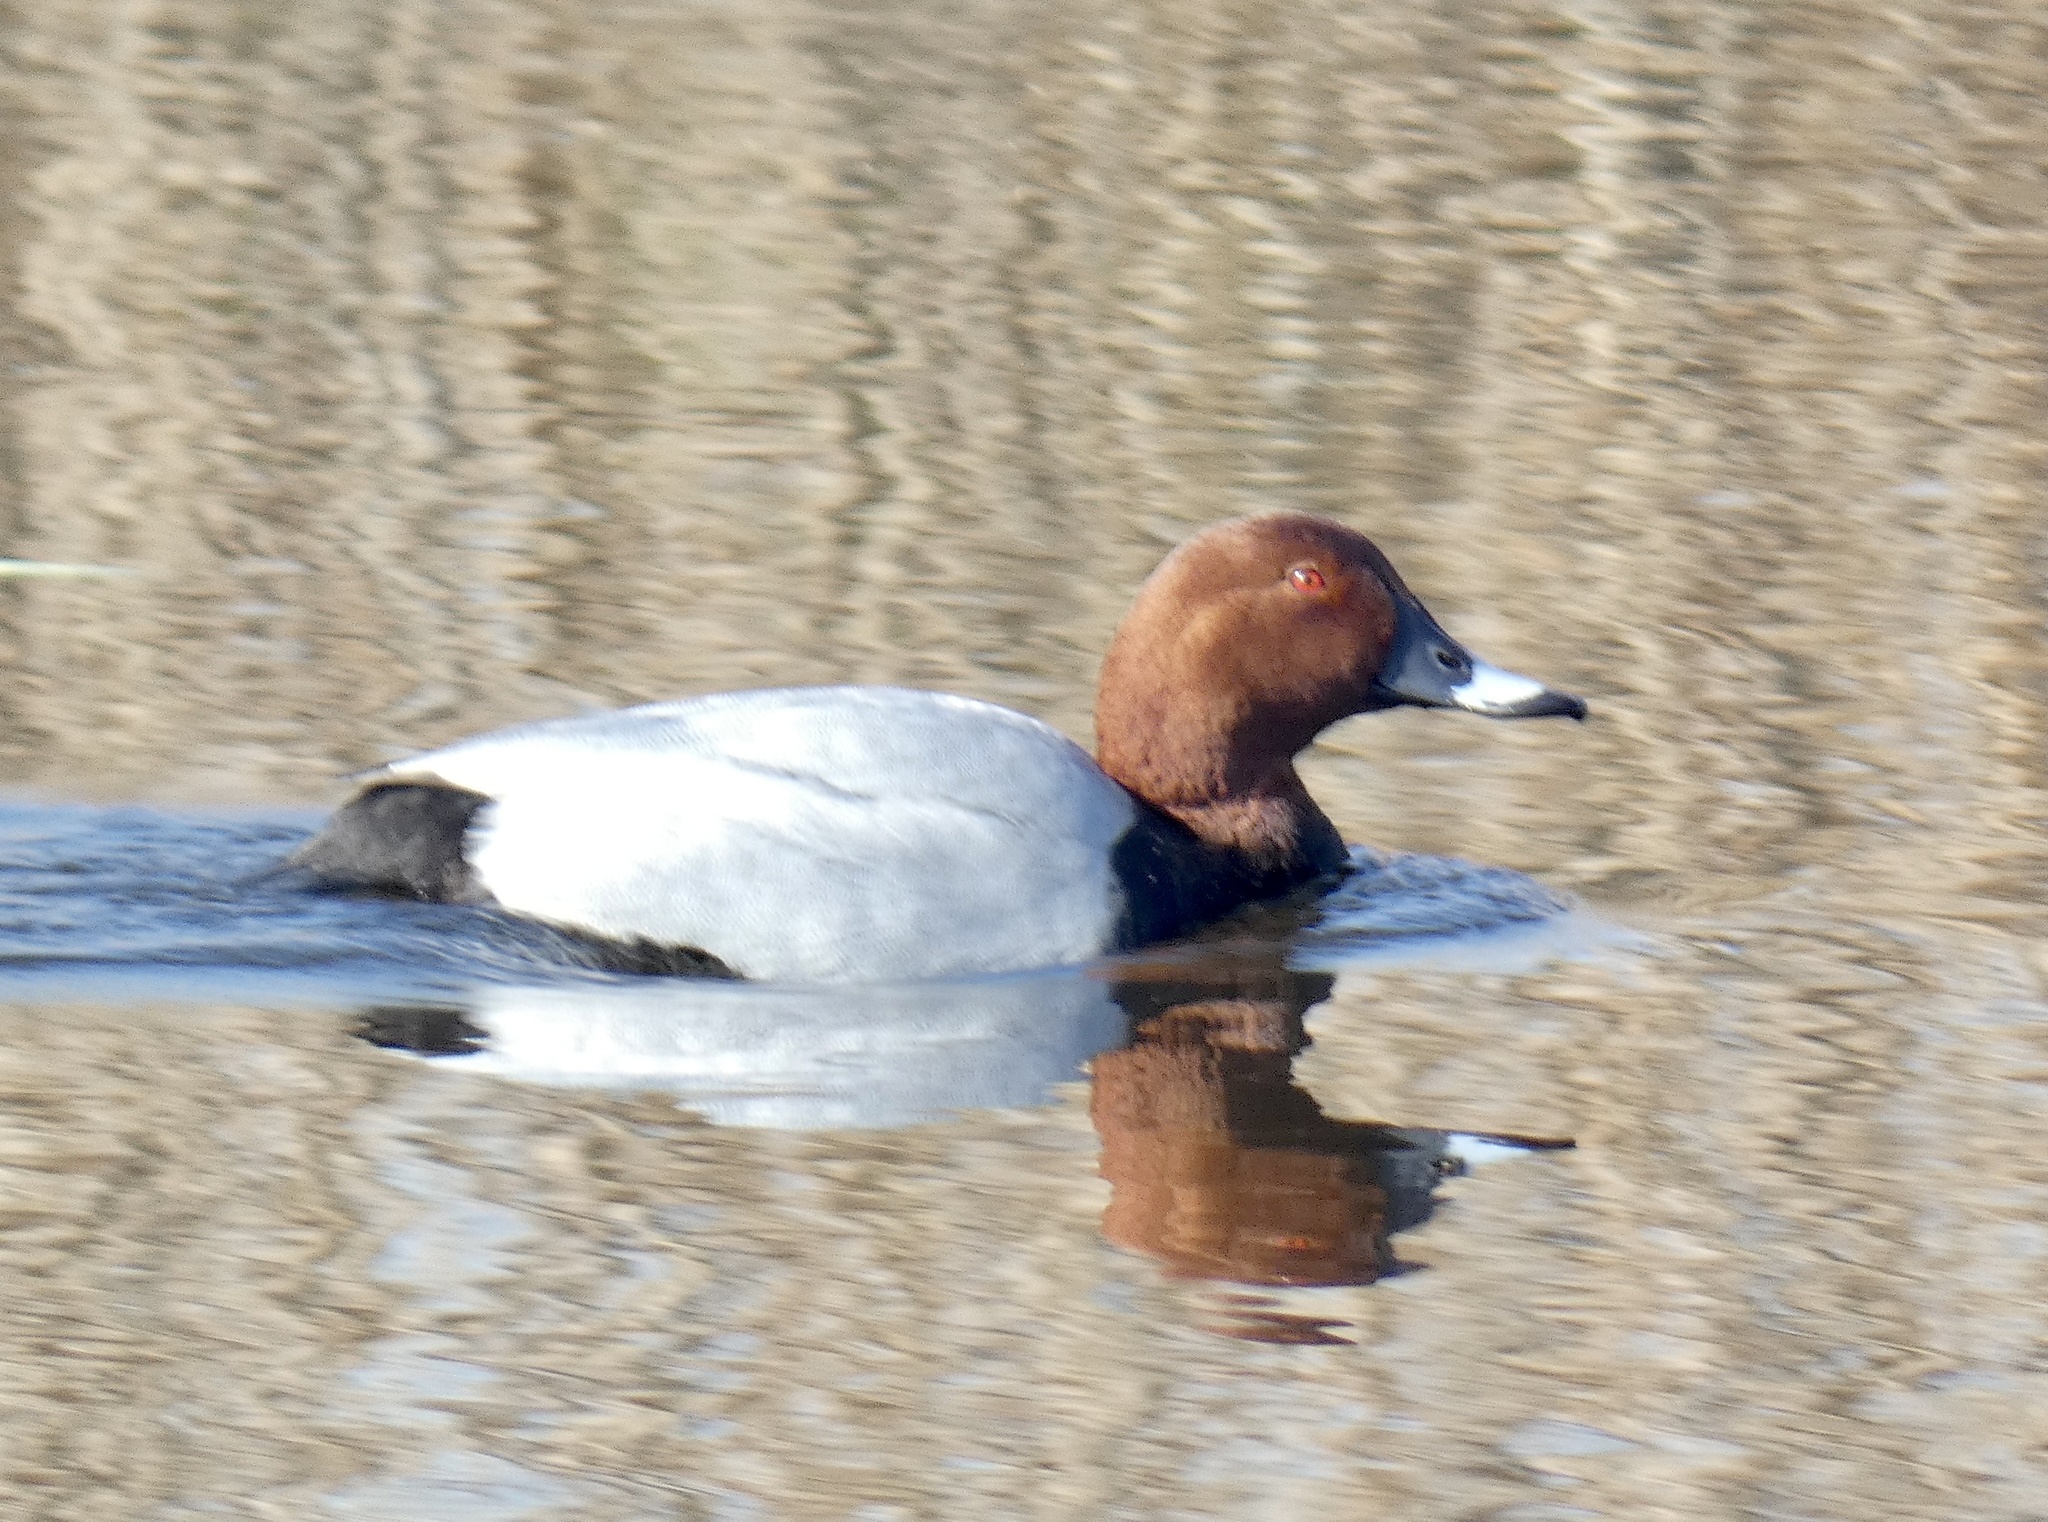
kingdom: Animalia
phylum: Chordata
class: Aves
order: Anseriformes
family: Anatidae
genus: Aythya
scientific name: Aythya ferina
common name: Common pochard
